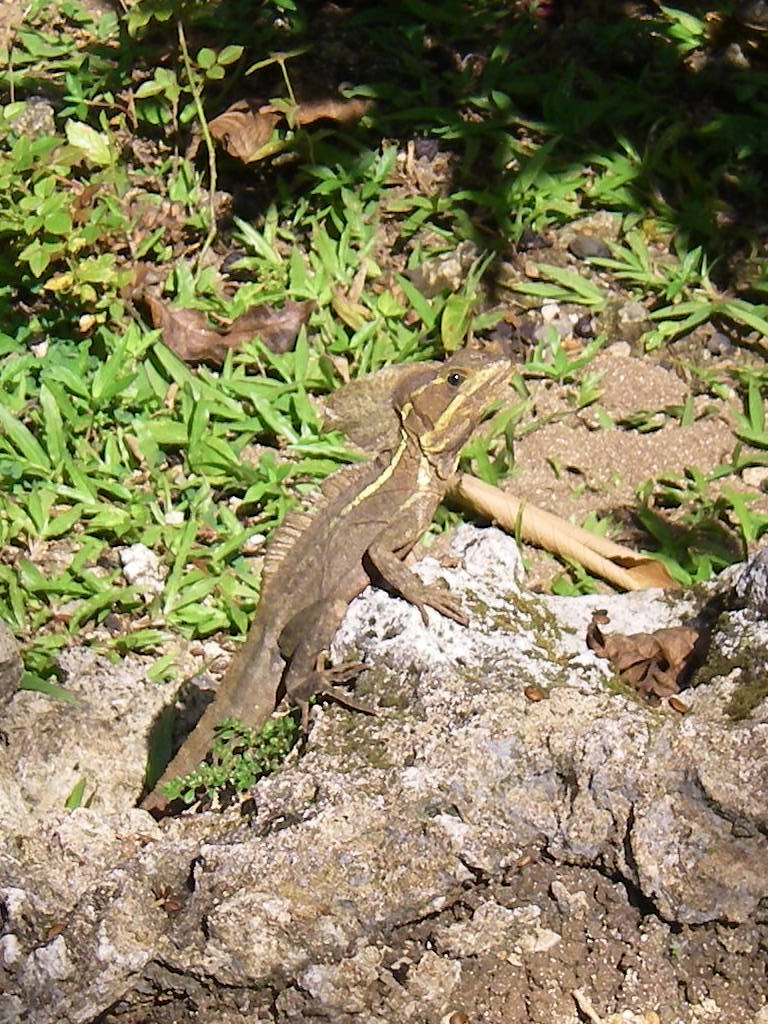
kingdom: Animalia
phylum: Chordata
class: Squamata
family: Corytophanidae
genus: Basiliscus
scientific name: Basiliscus vittatus
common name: Brown basilisk
